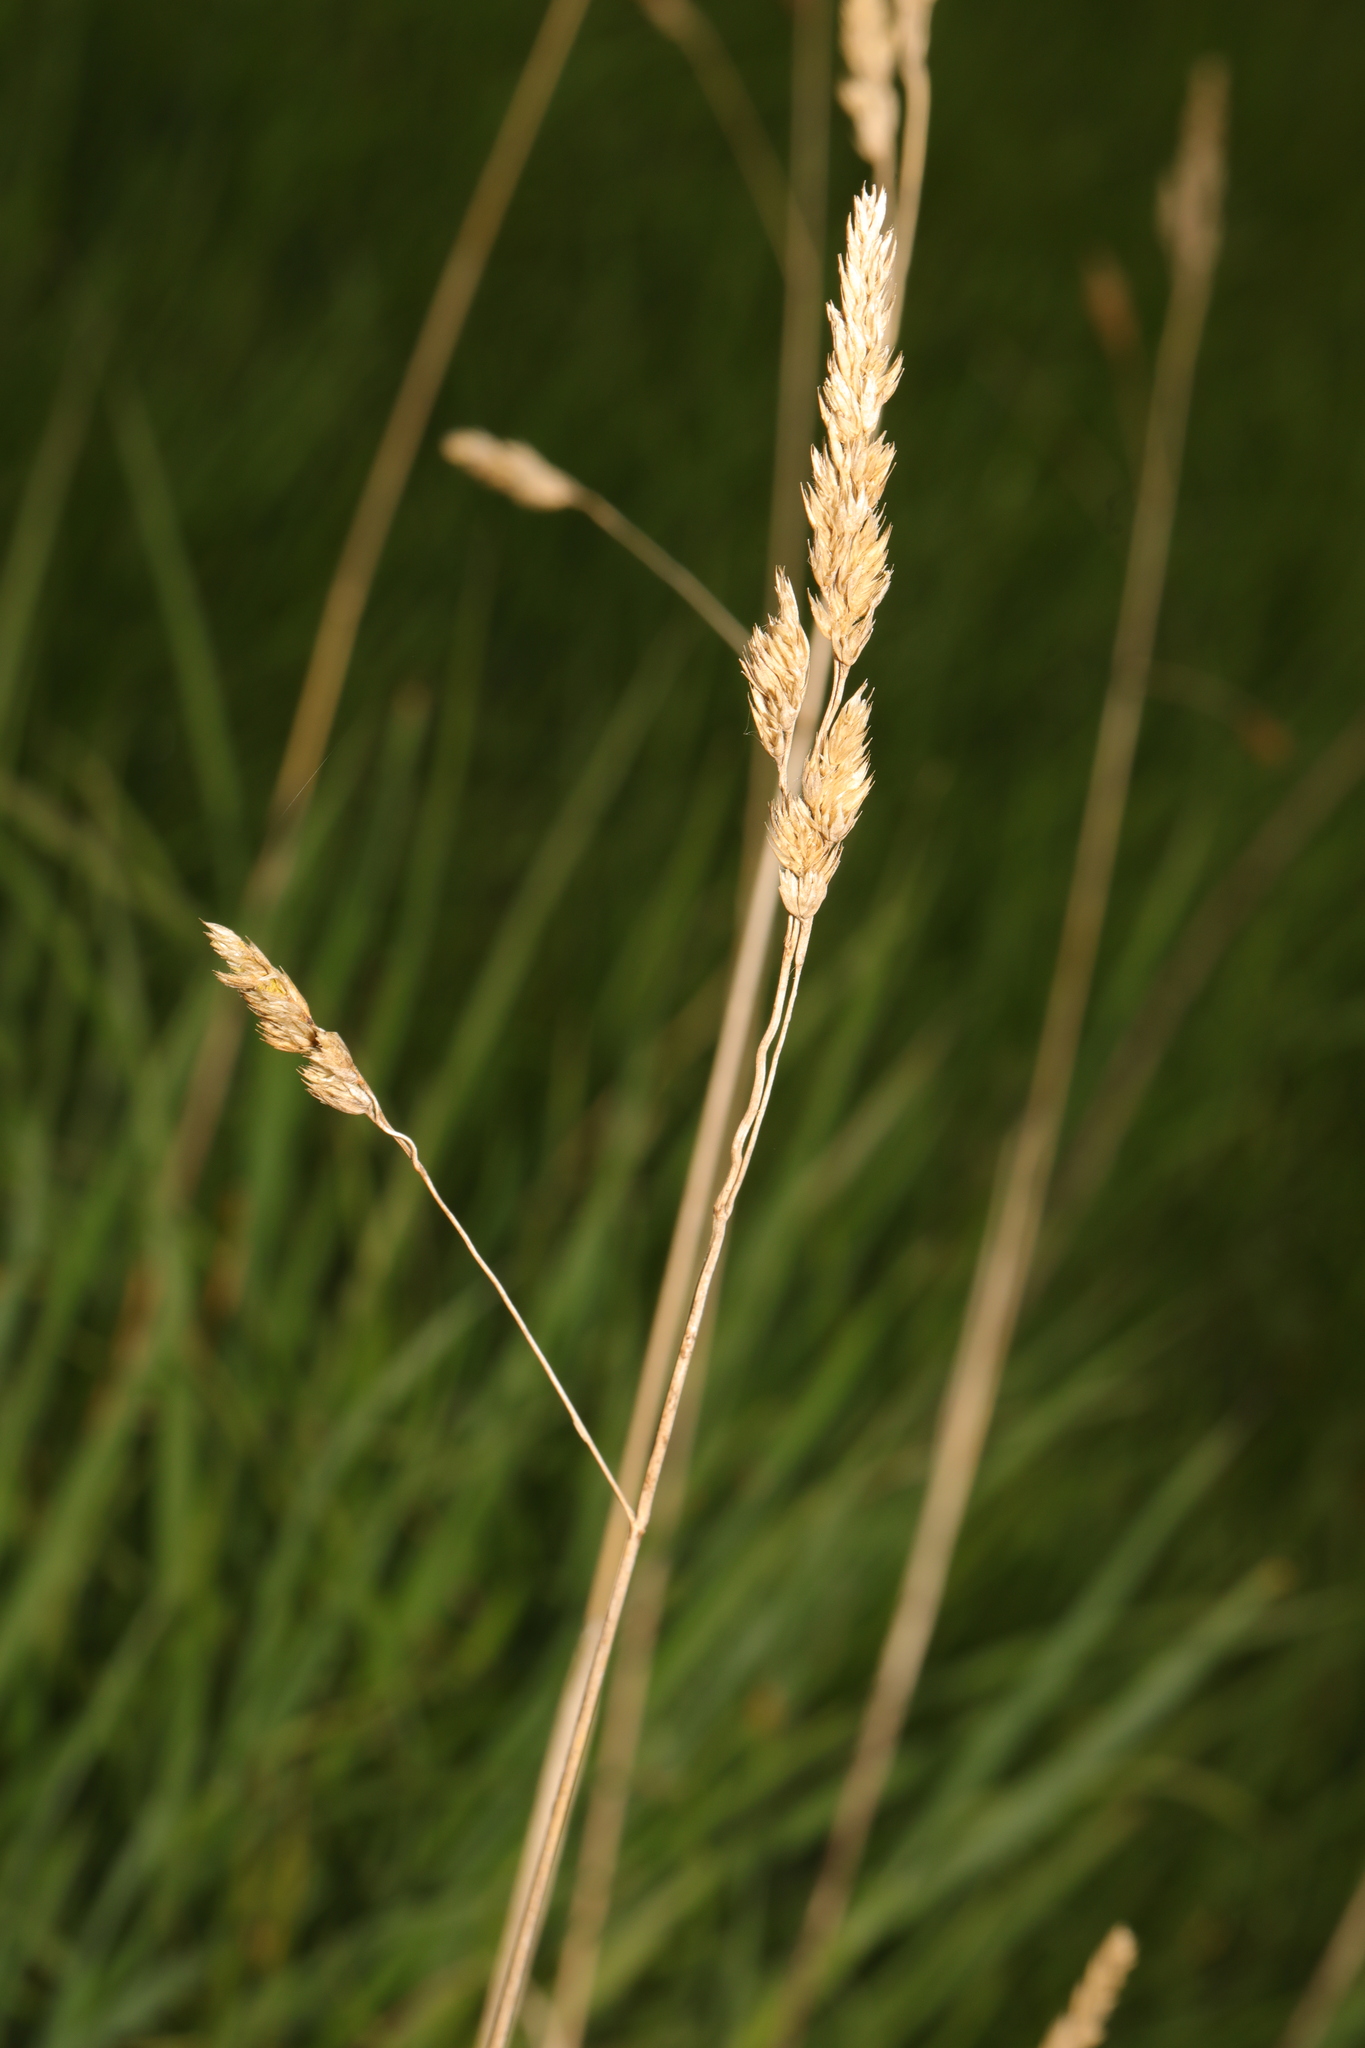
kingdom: Plantae
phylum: Tracheophyta
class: Liliopsida
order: Poales
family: Poaceae
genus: Dactylis
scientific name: Dactylis glomerata
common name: Orchardgrass
